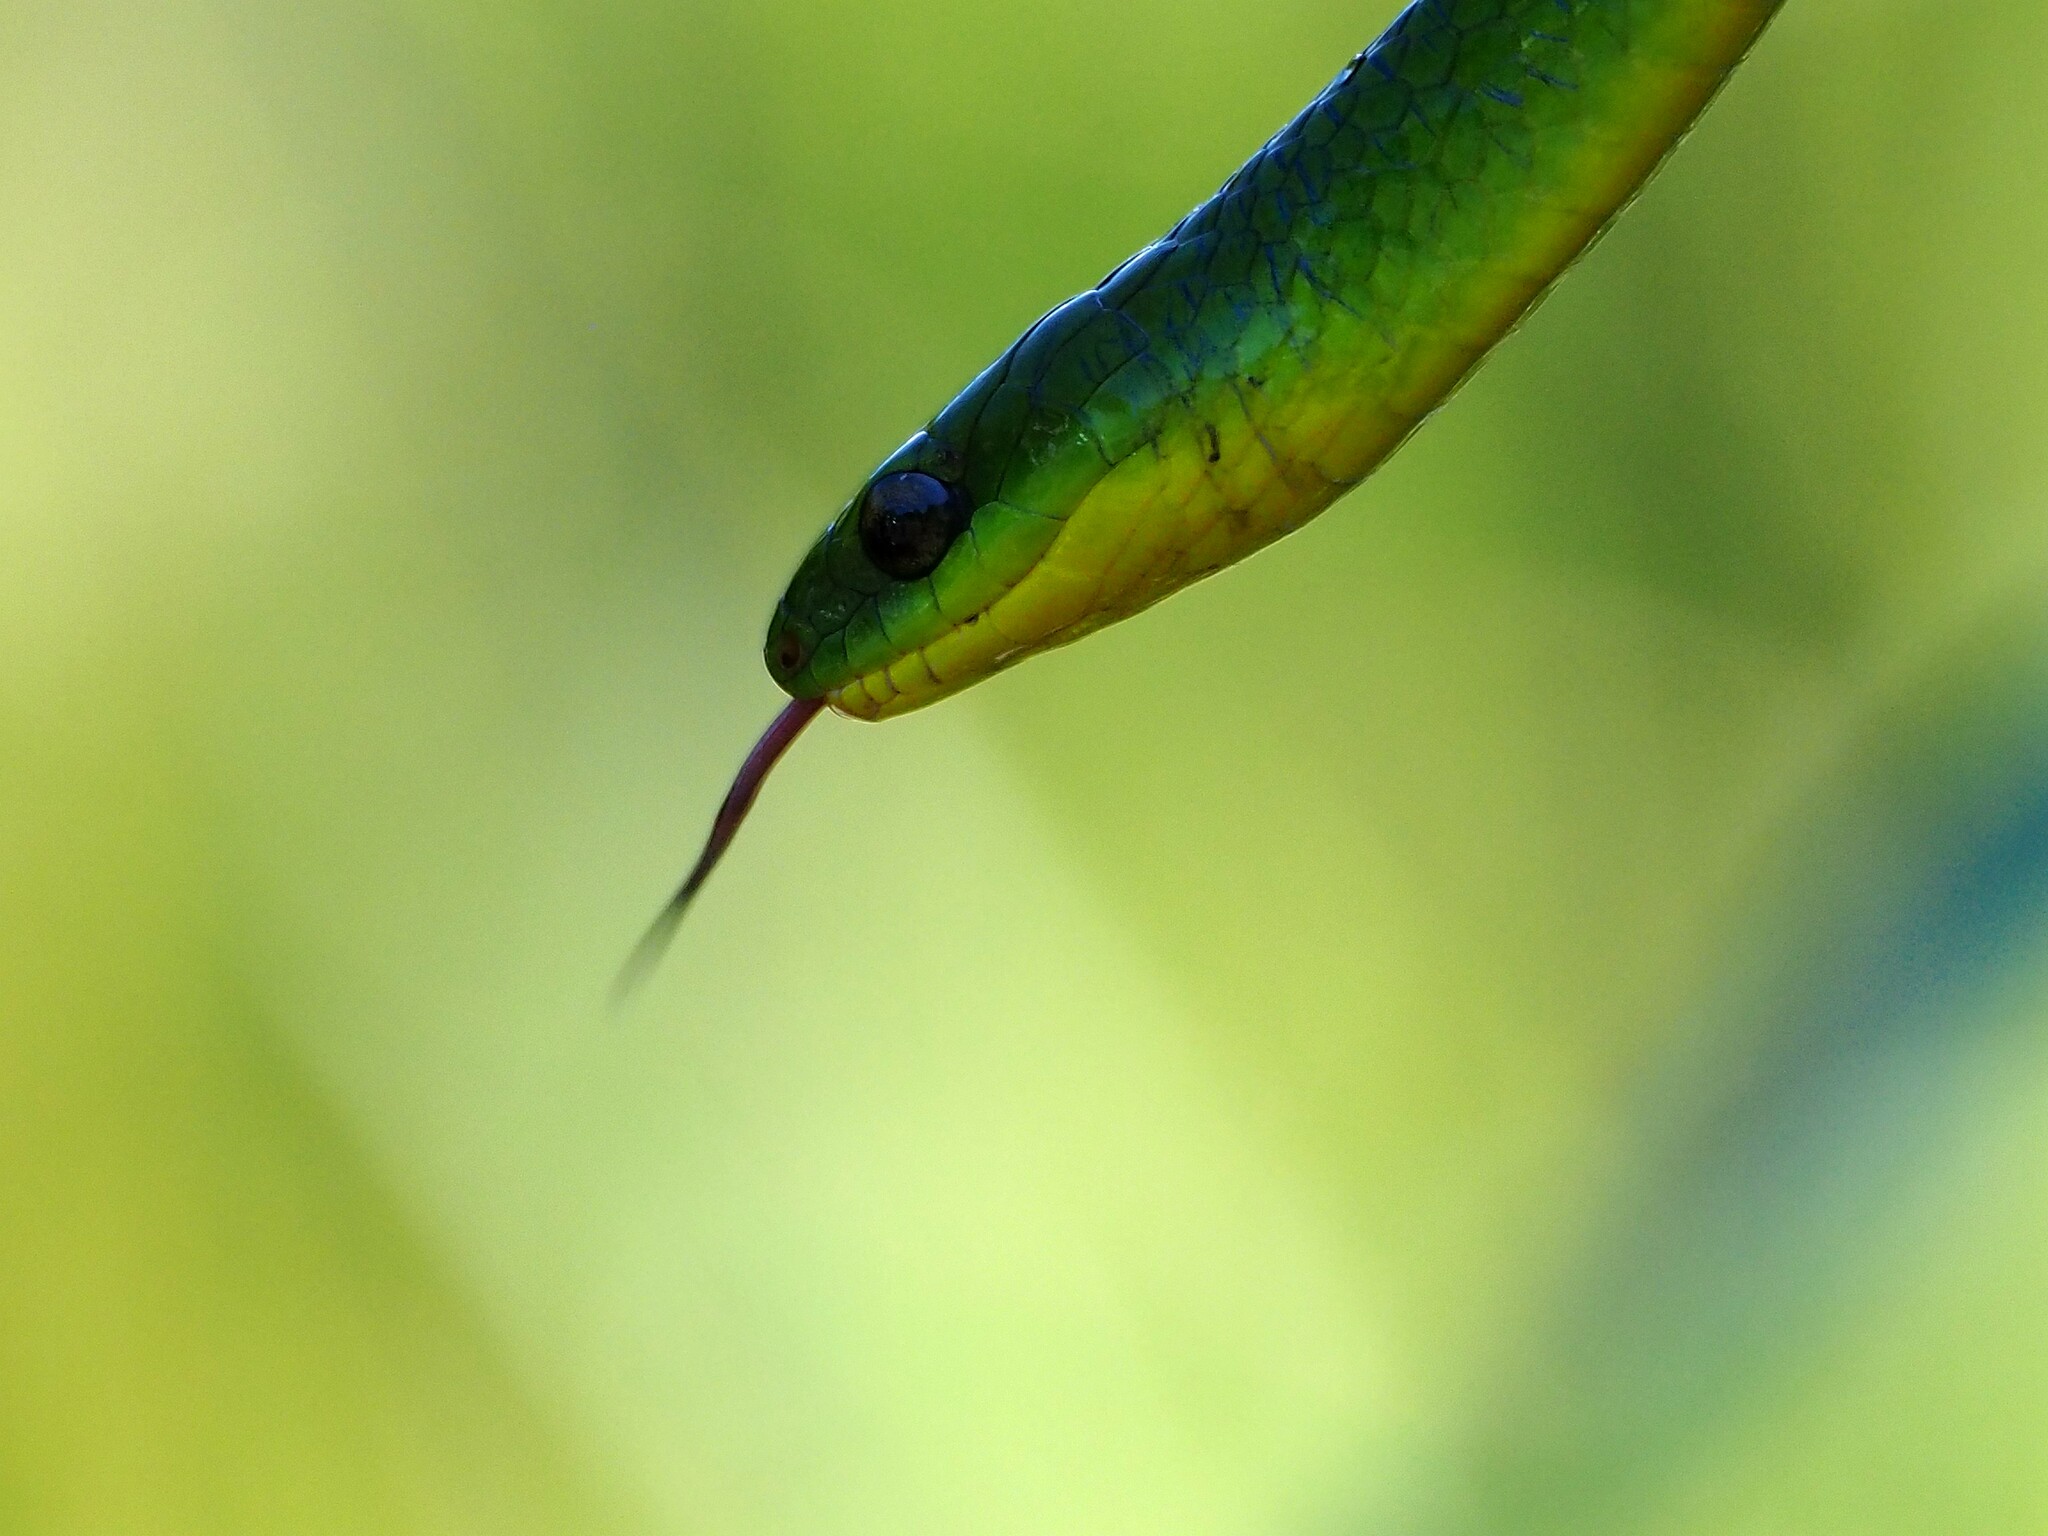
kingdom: Animalia
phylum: Chordata
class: Squamata
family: Colubridae
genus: Ptyas
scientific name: Ptyas major
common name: Chinese green snake
